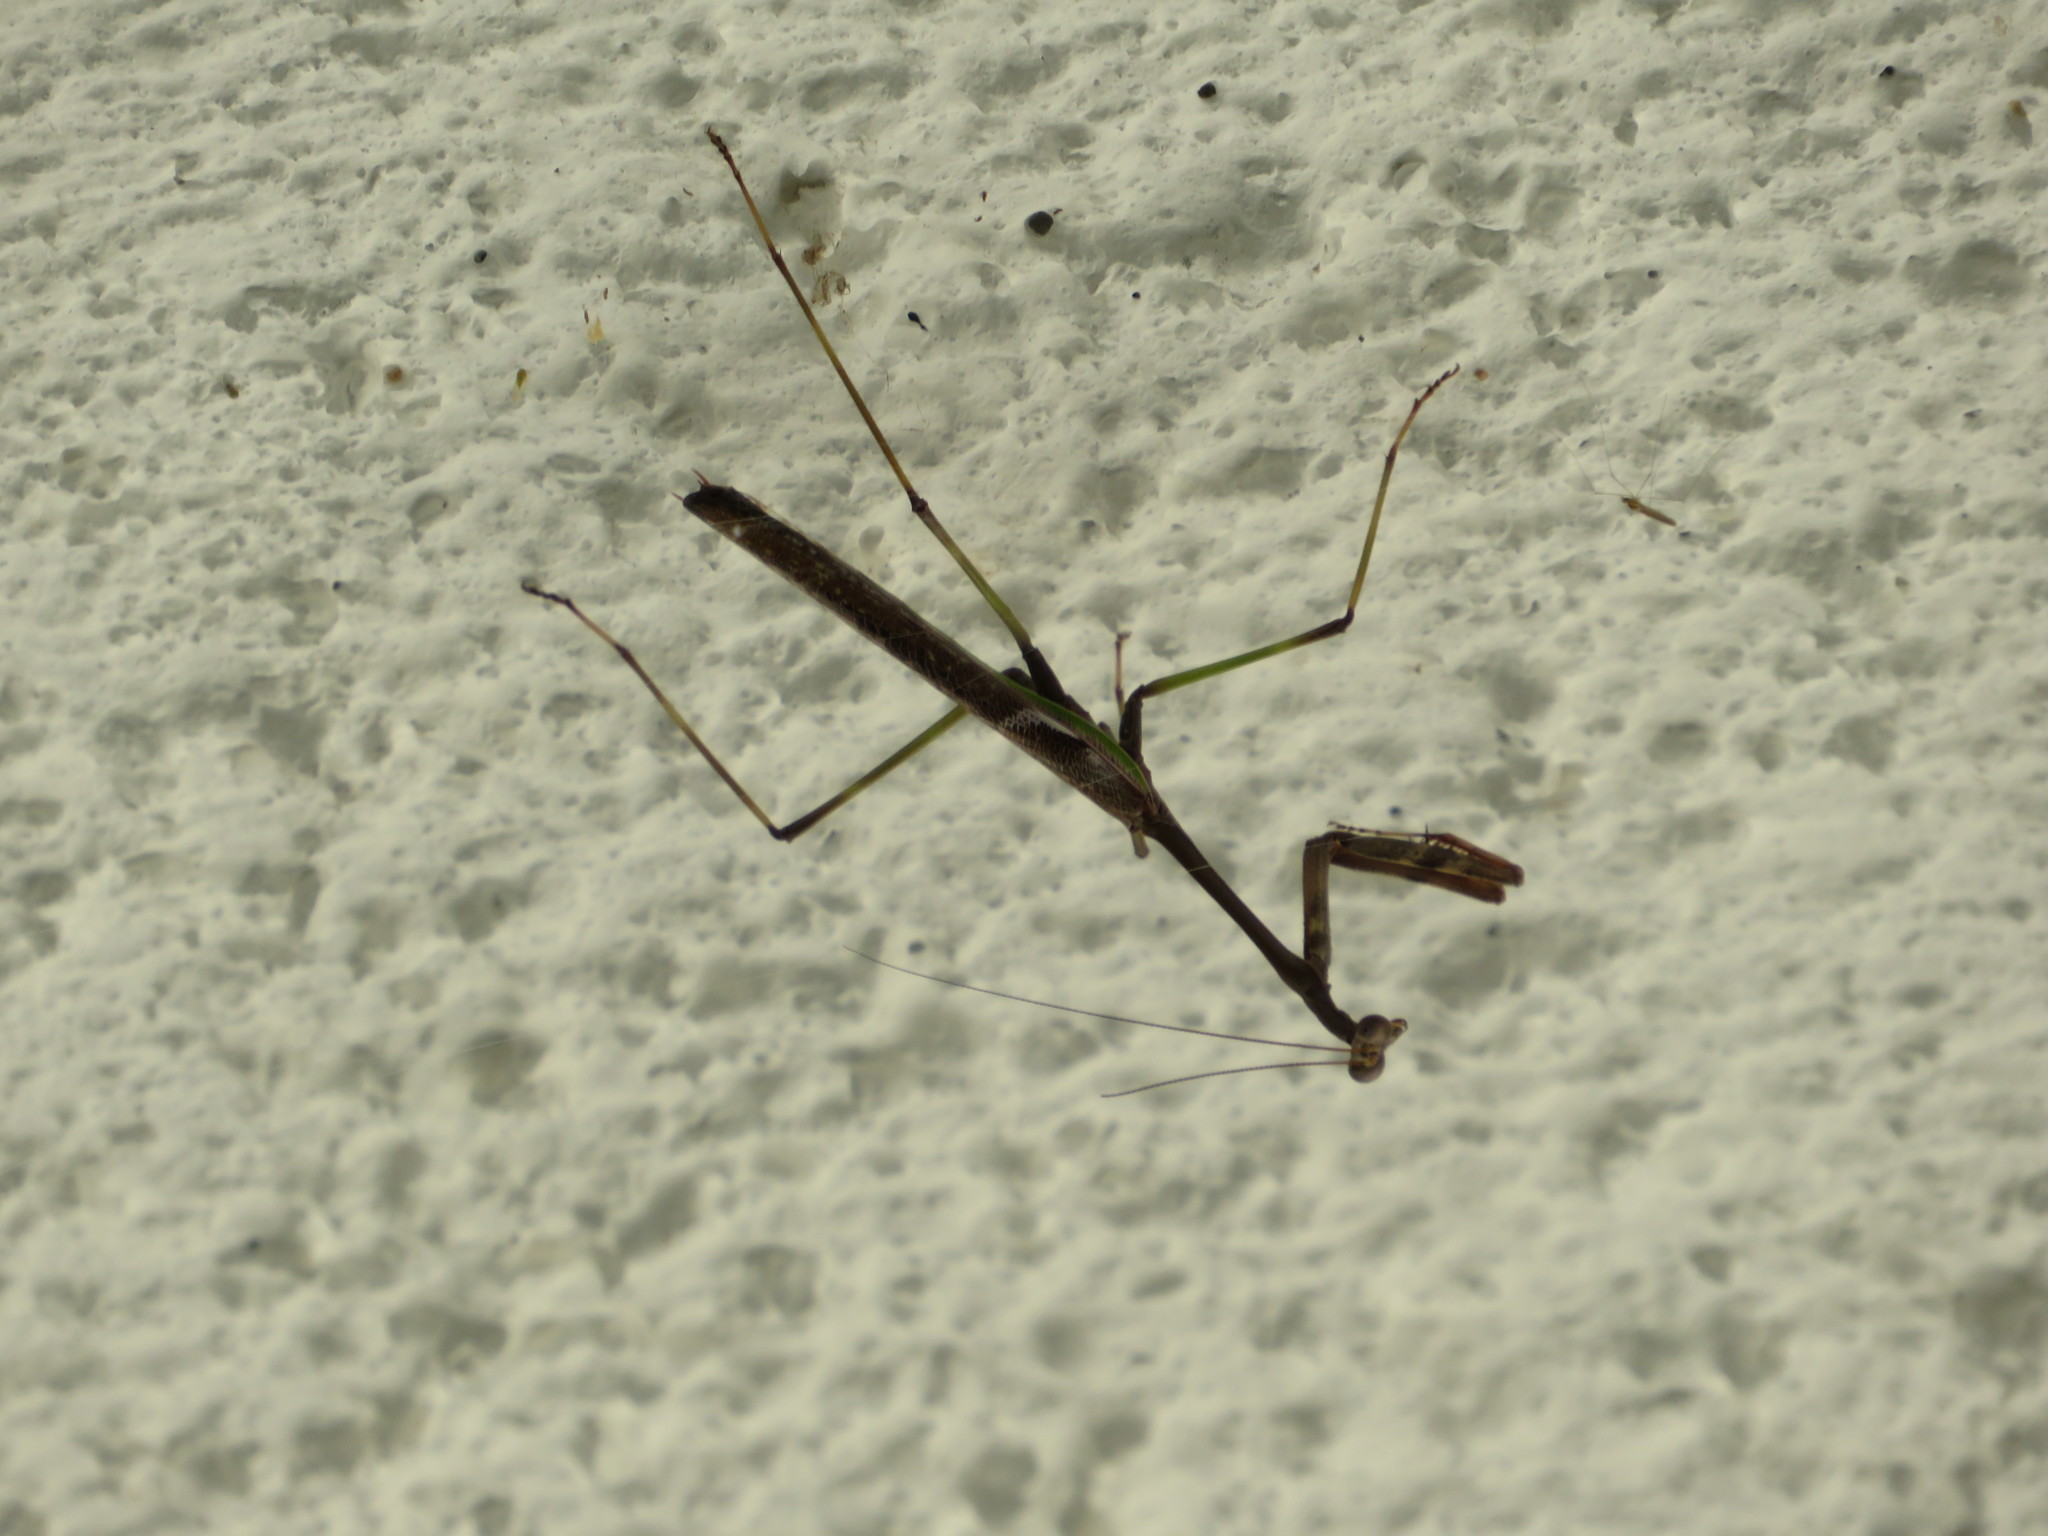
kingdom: Animalia
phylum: Arthropoda
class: Insecta
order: Mantodea
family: Mantidae
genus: Stagmomantis
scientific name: Stagmomantis domingensis
